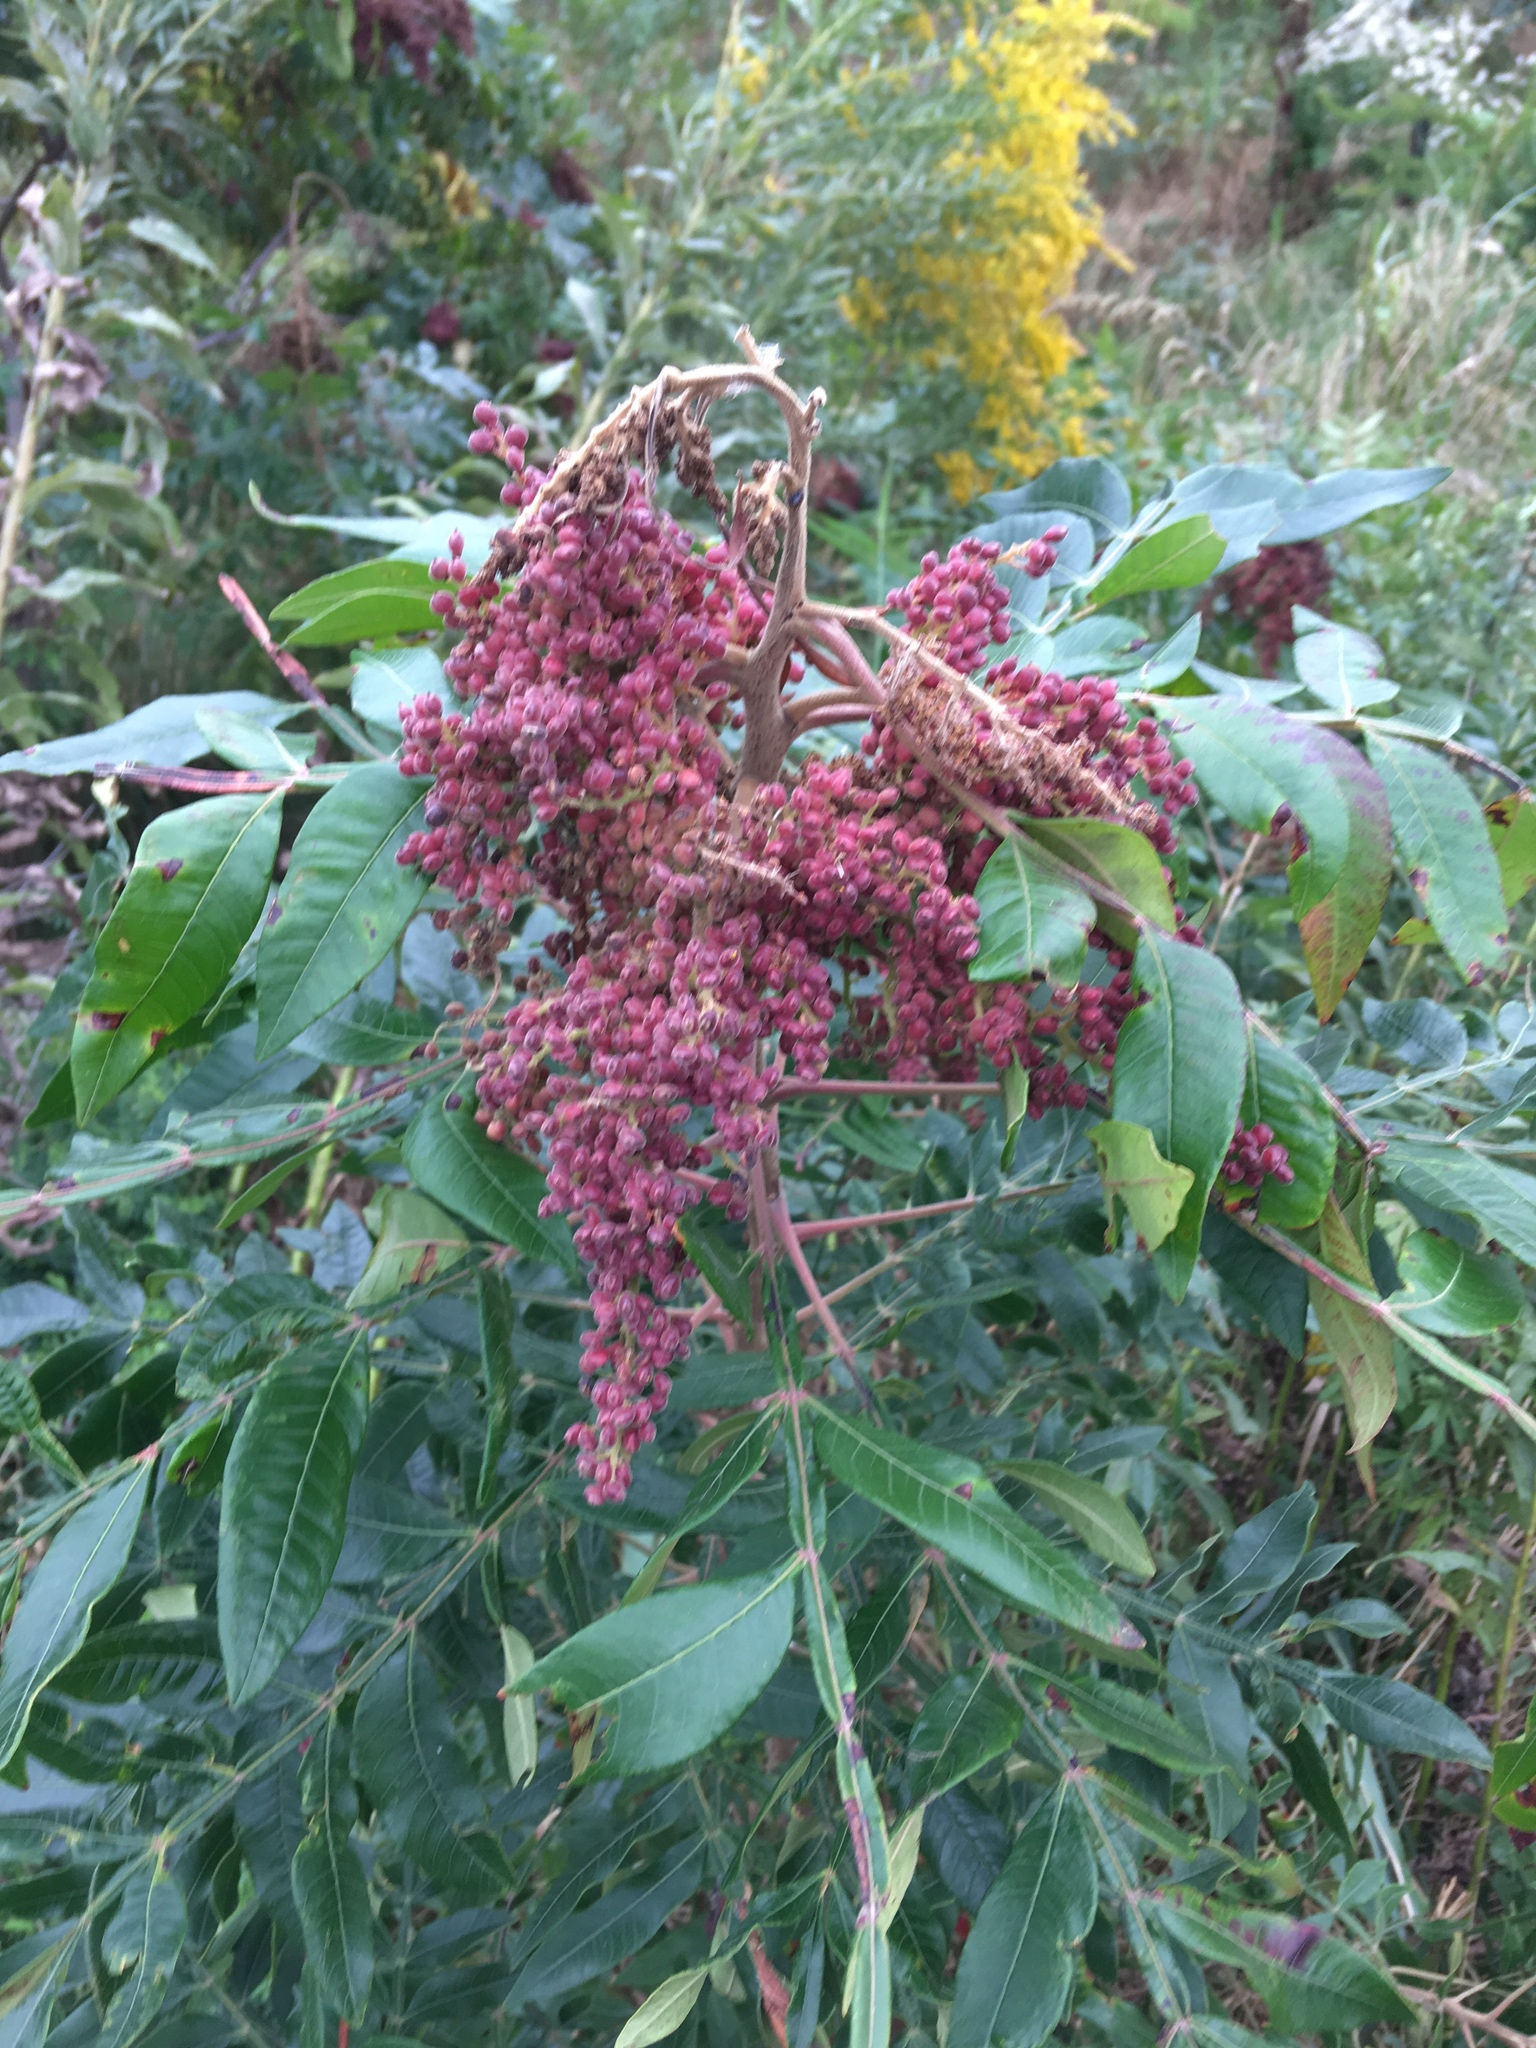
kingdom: Plantae
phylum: Tracheophyta
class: Magnoliopsida
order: Sapindales
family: Anacardiaceae
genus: Rhus
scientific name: Rhus copallina
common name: Shining sumac
